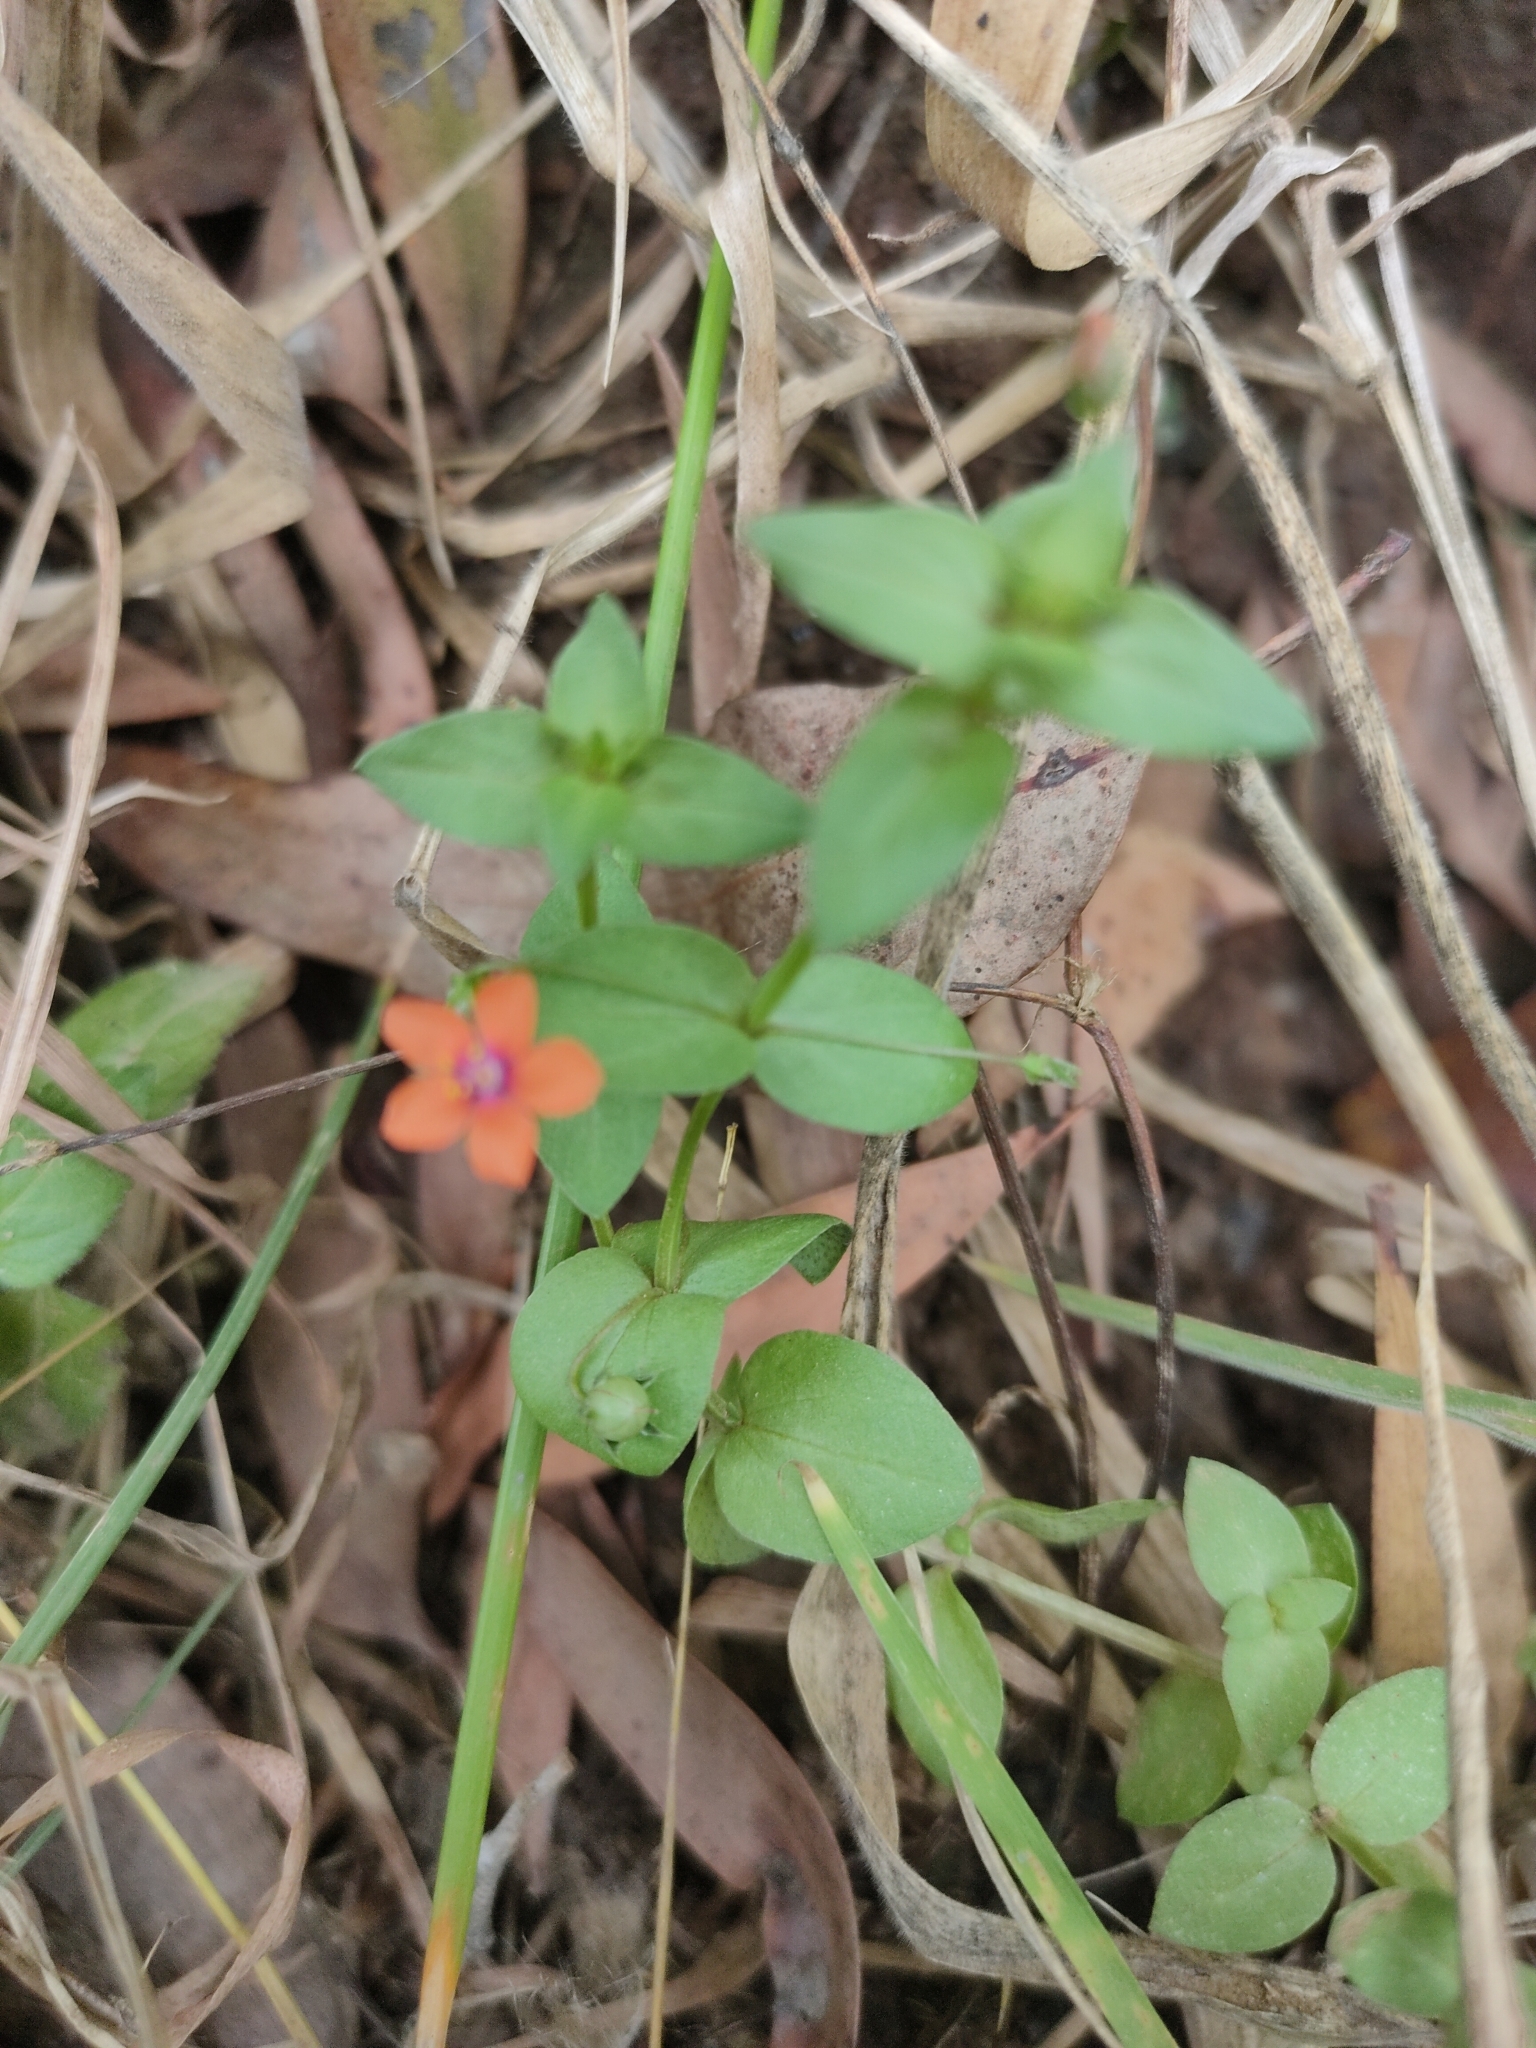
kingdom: Plantae
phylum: Tracheophyta
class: Magnoliopsida
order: Ericales
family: Primulaceae
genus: Lysimachia
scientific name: Lysimachia arvensis
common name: Scarlet pimpernel
